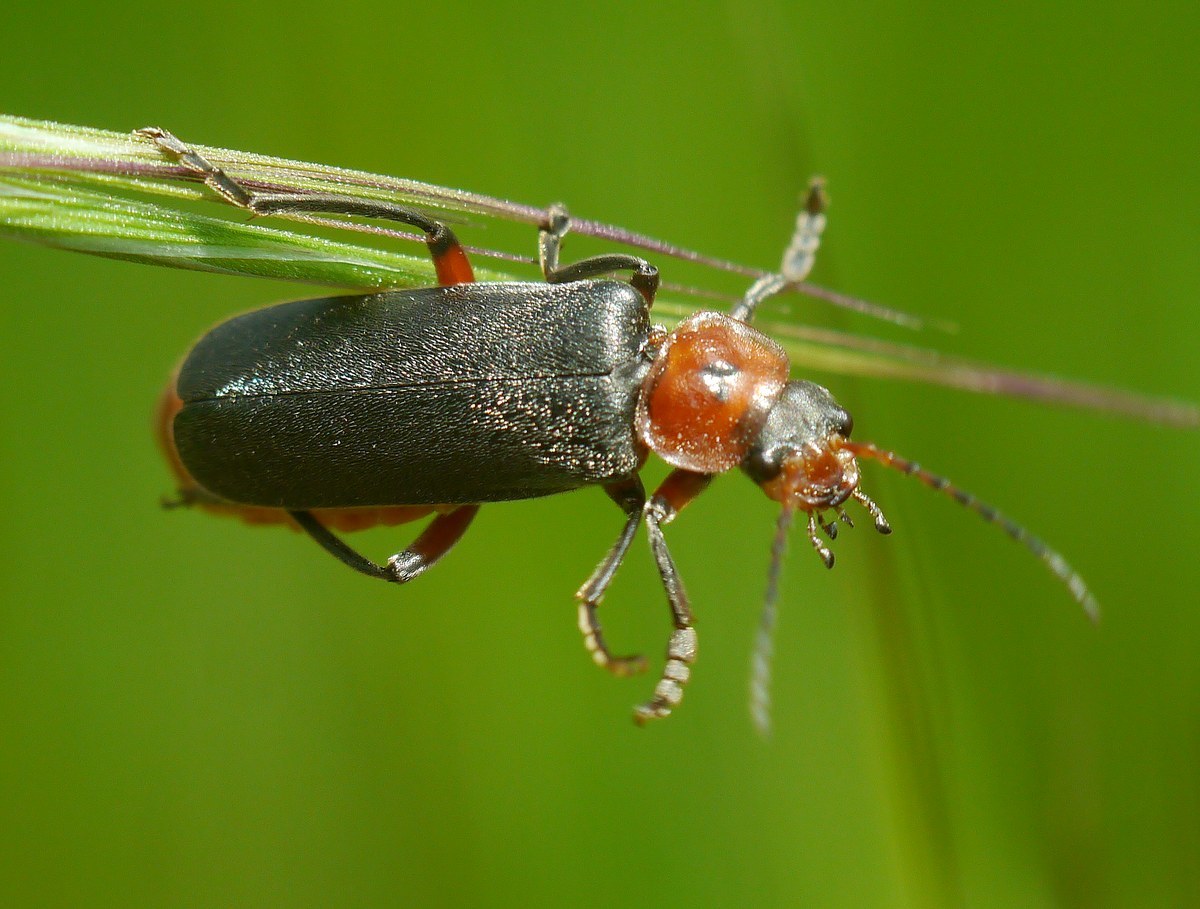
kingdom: Animalia
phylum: Arthropoda
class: Insecta
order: Coleoptera
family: Cantharidae
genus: Cantharis
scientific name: Cantharis rustica
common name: Soldier beetle
